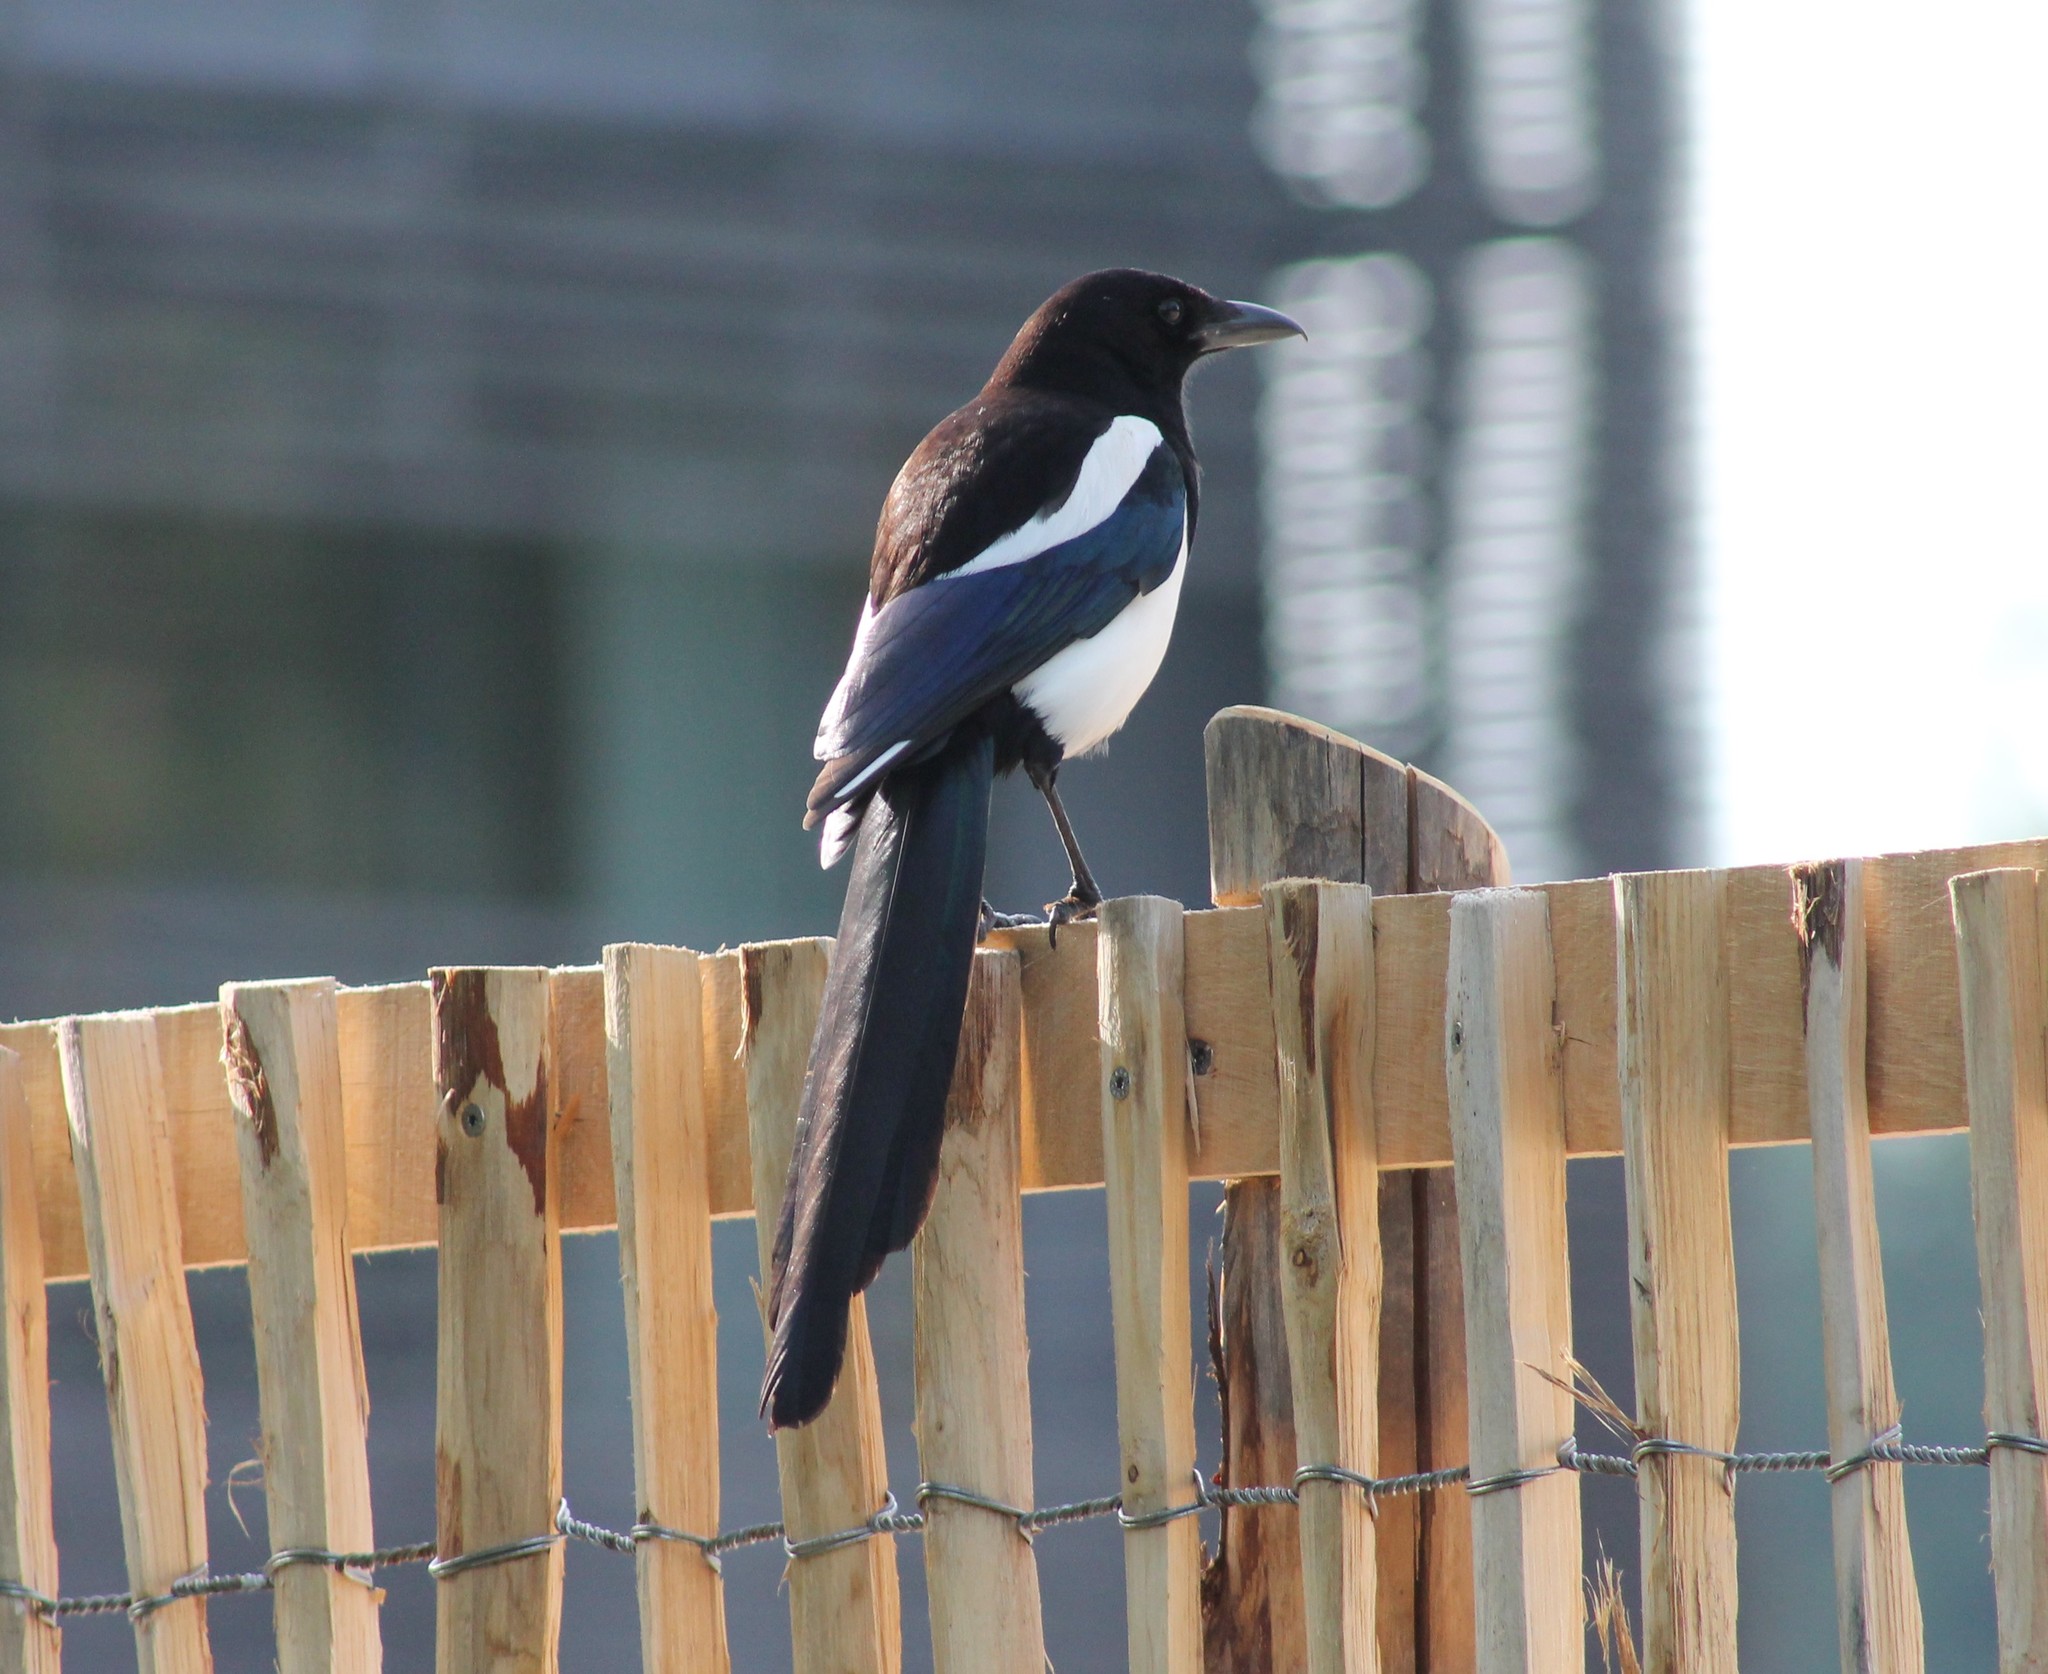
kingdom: Animalia
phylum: Chordata
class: Aves
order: Passeriformes
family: Corvidae
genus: Pica
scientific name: Pica pica
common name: Eurasian magpie
